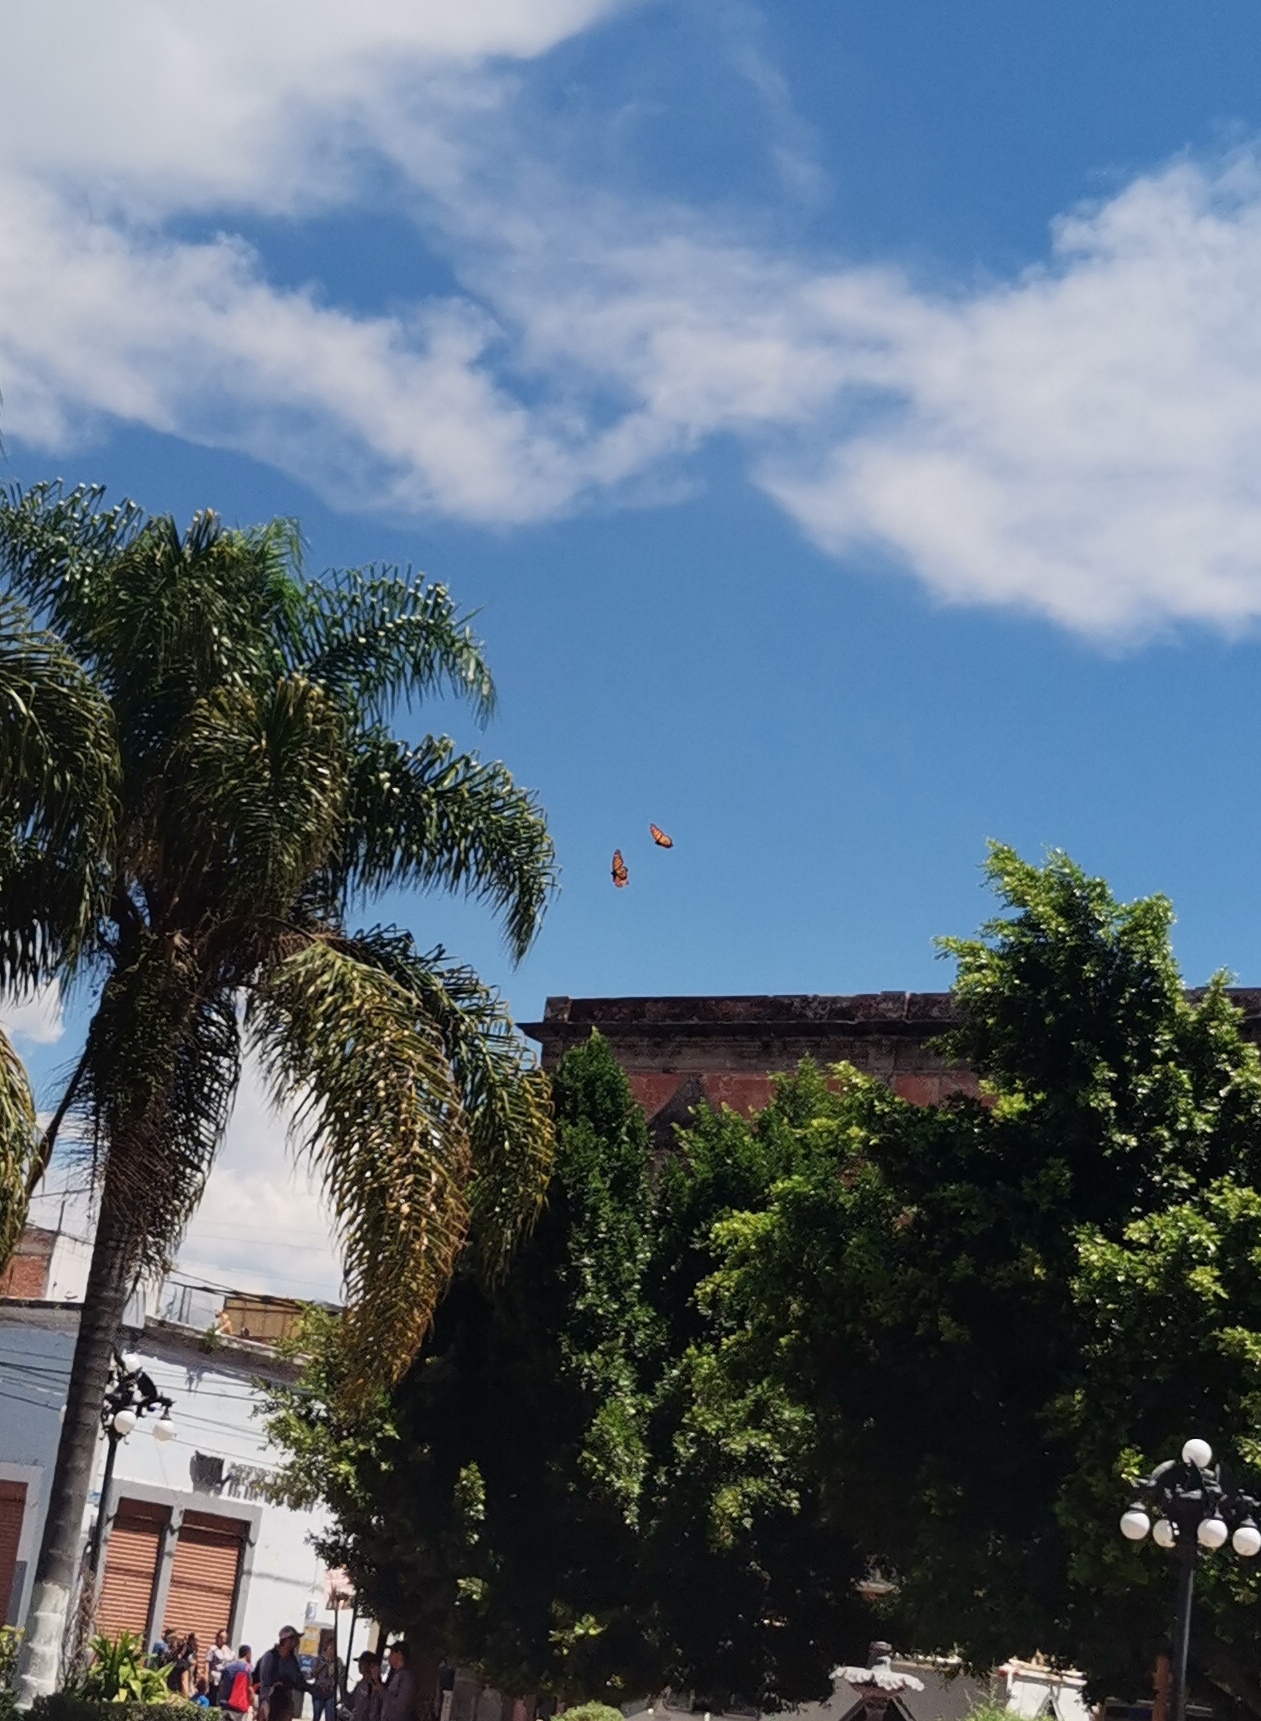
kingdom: Animalia
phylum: Arthropoda
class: Insecta
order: Lepidoptera
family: Nymphalidae
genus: Danaus
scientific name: Danaus plexippus
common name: Monarch
